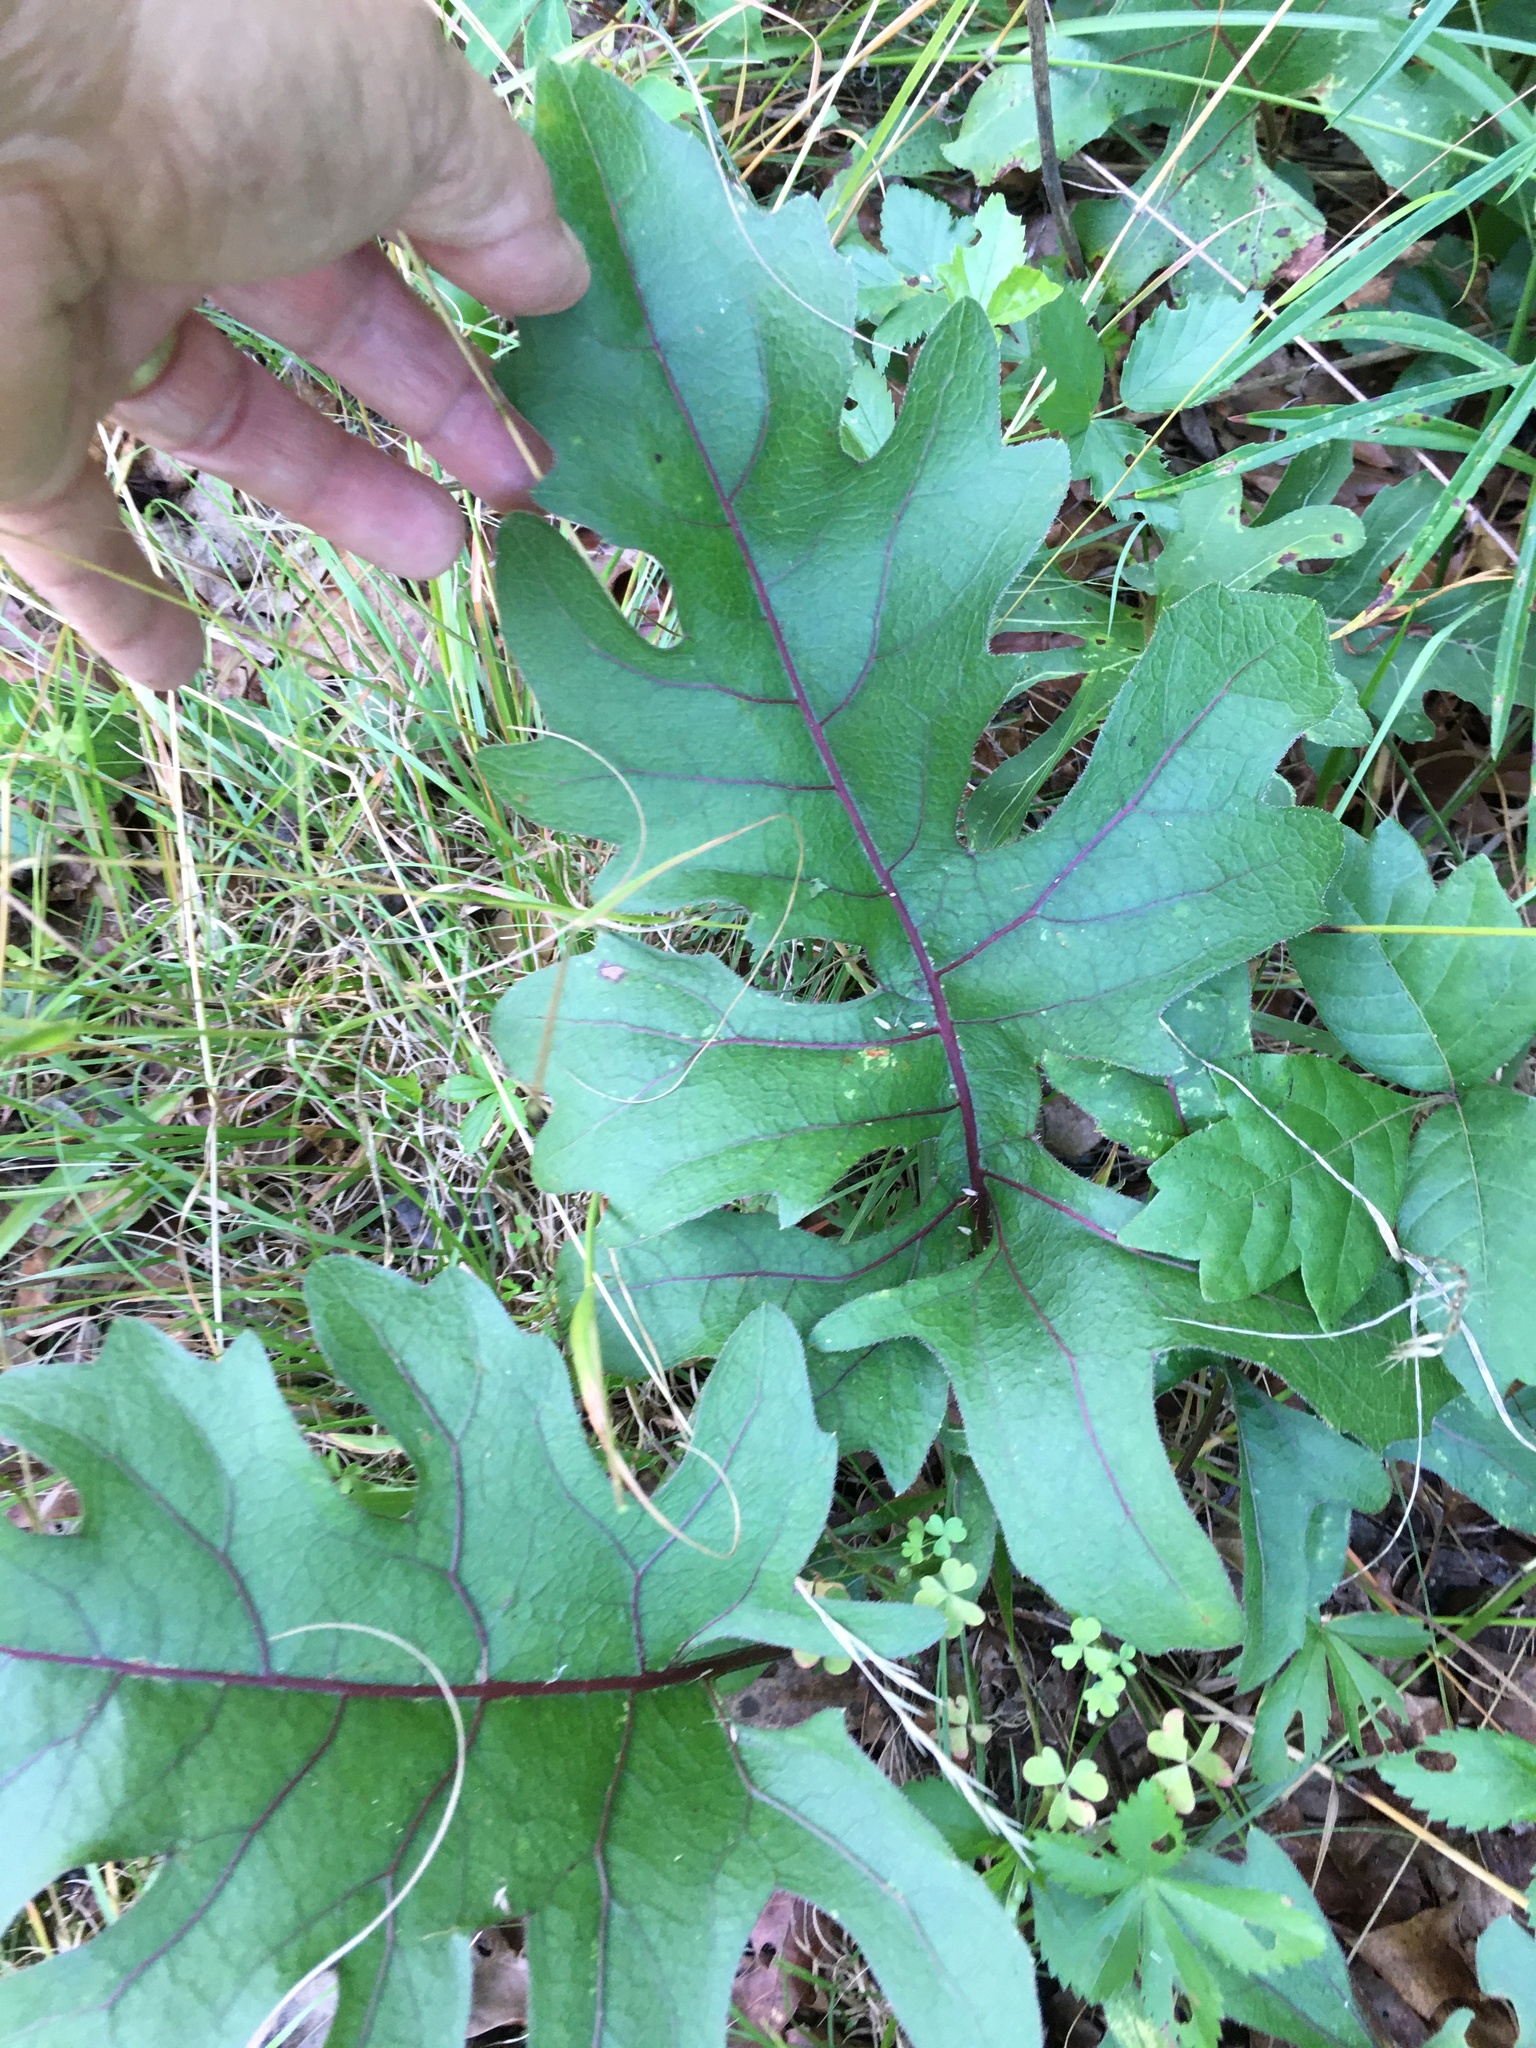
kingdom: Plantae
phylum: Tracheophyta
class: Magnoliopsida
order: Asterales
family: Asteraceae
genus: Silphium
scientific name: Silphium compositum
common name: Lesser basal-leaf rosinweed
